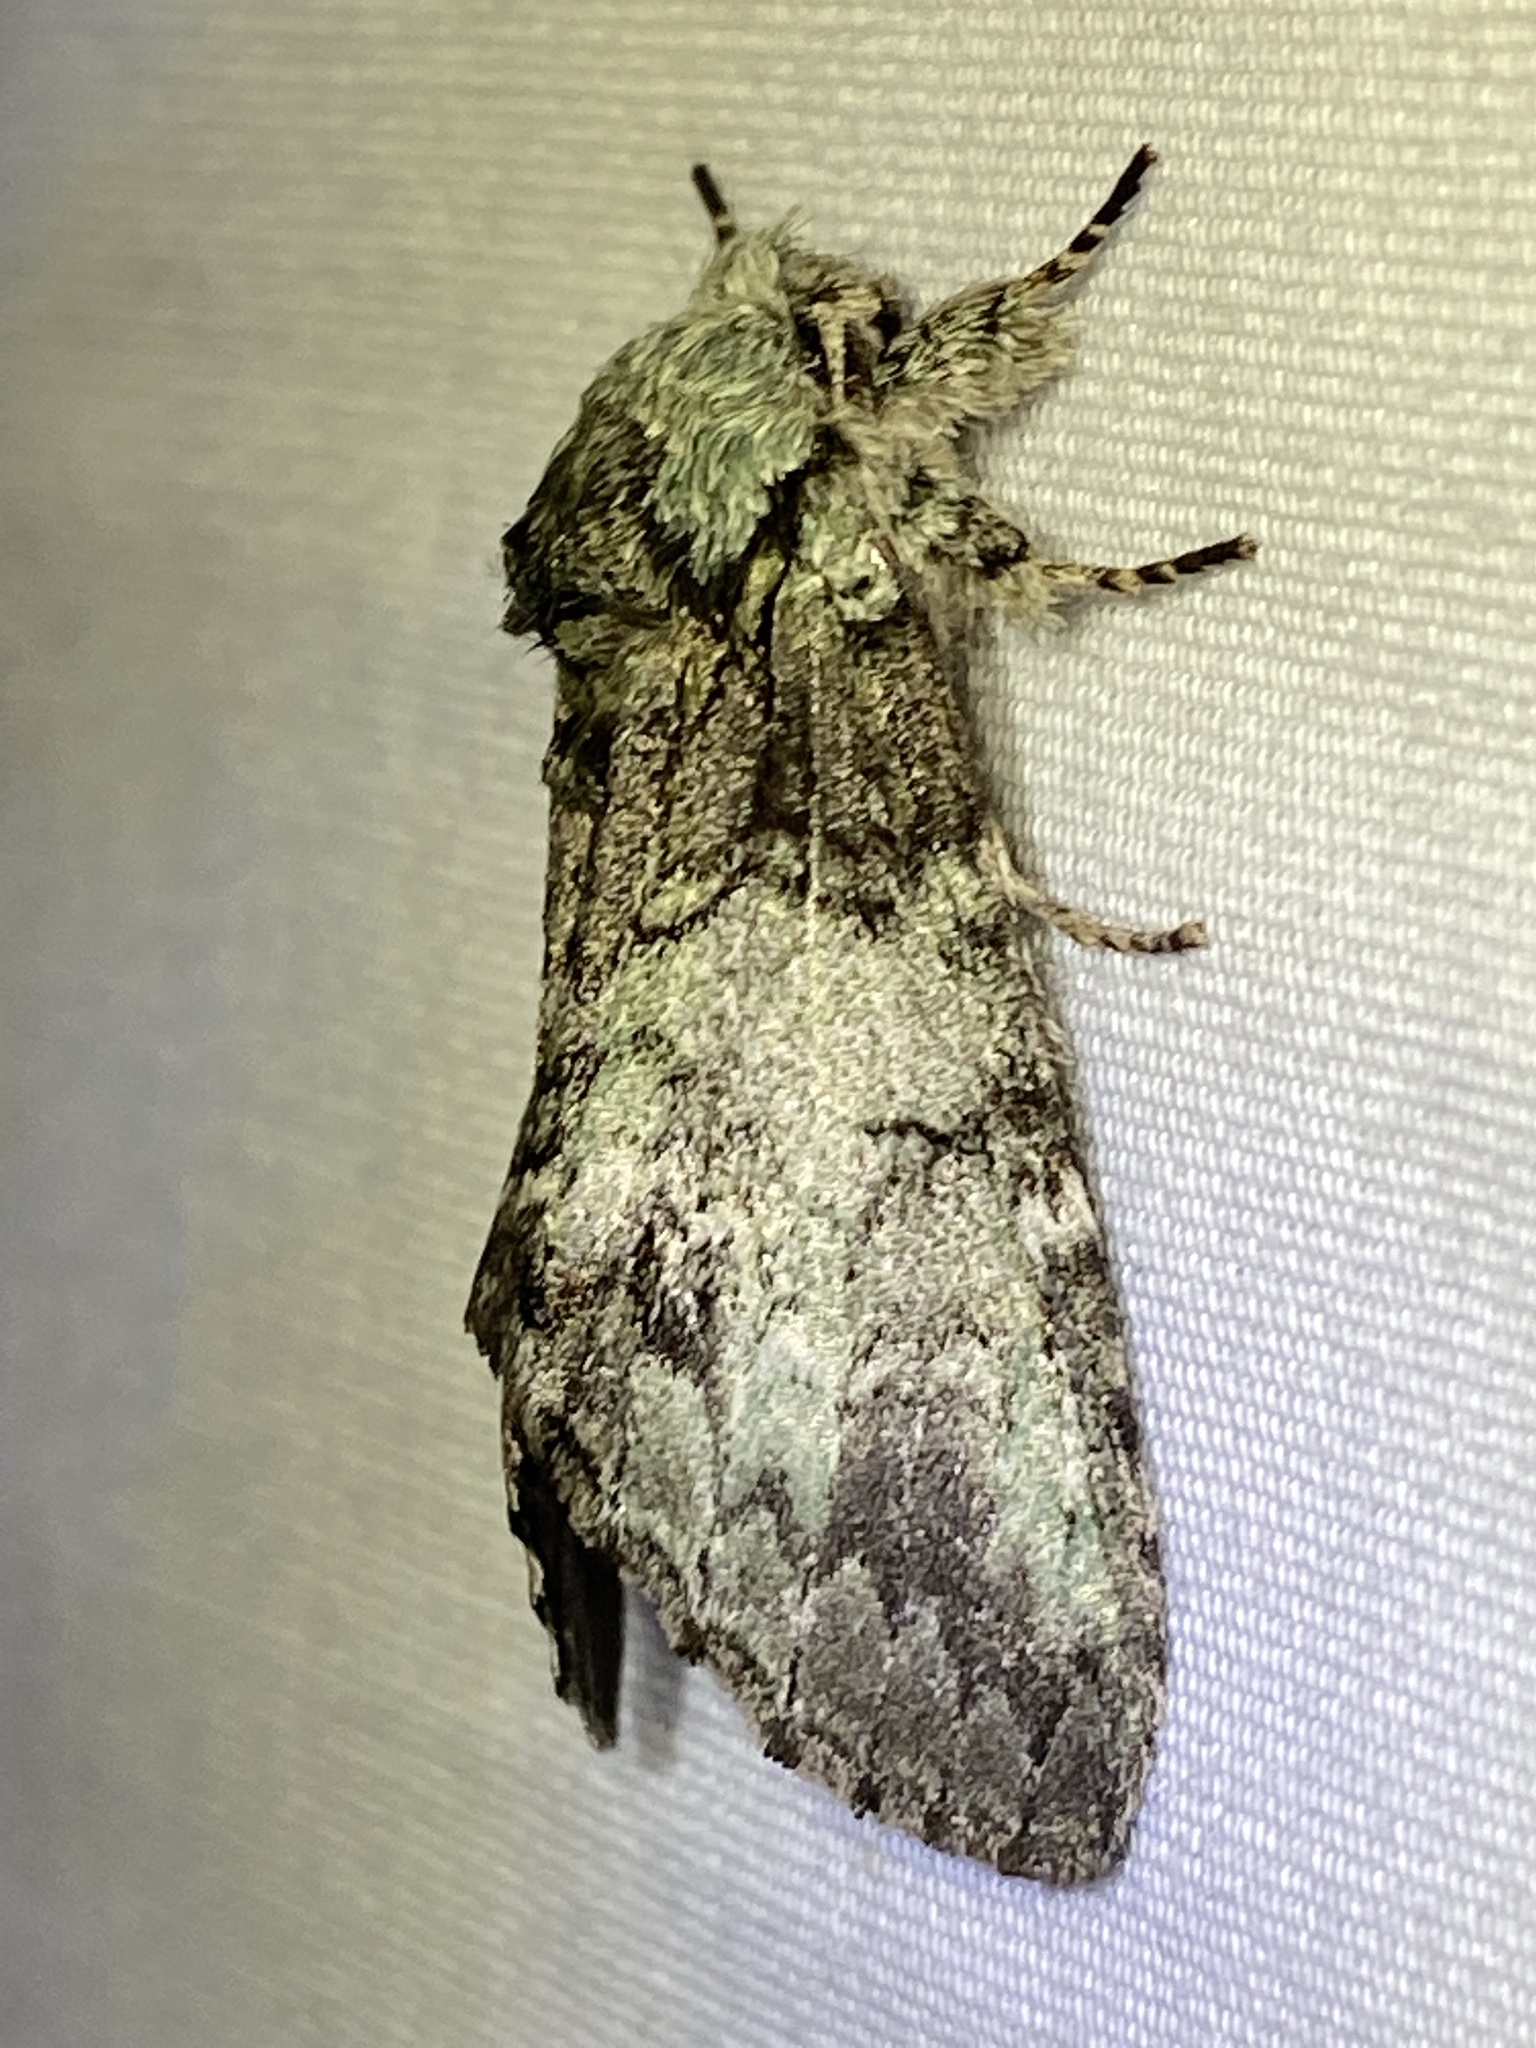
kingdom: Animalia
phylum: Arthropoda
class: Insecta
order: Lepidoptera
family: Notodontidae
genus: Macrurocampa
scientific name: Macrurocampa marthesia
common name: Mottled prominent
